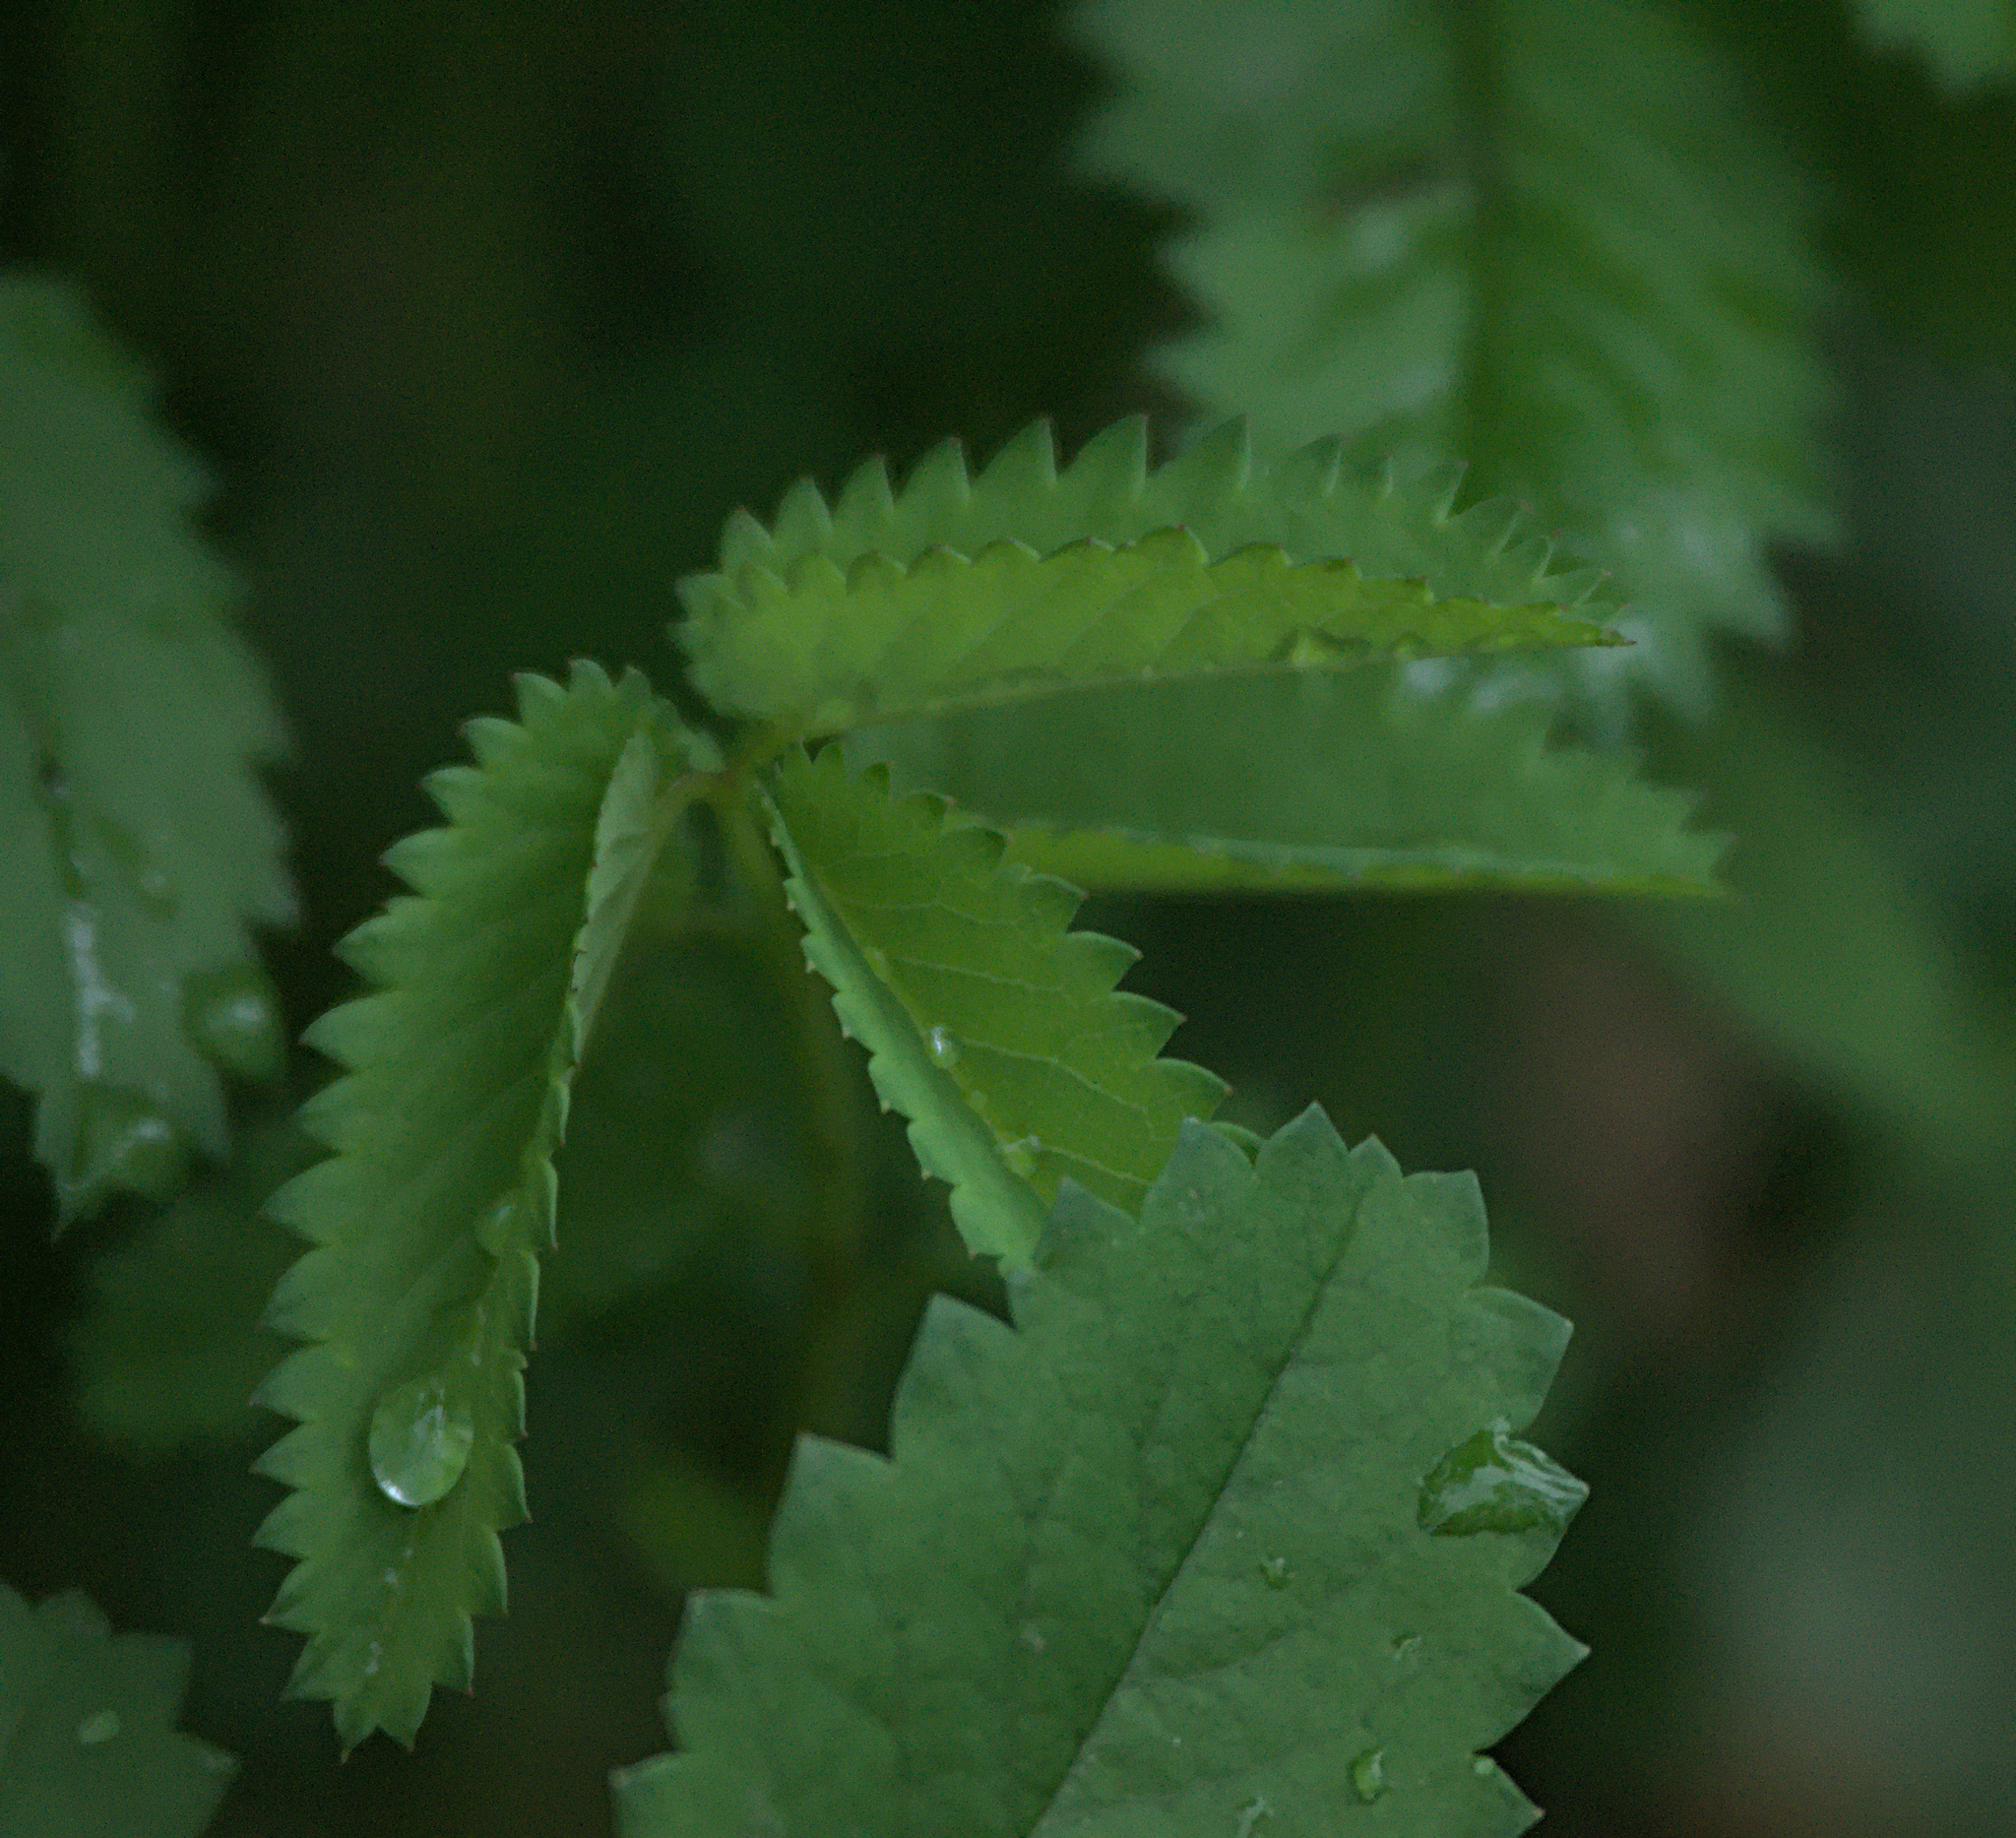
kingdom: Plantae
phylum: Tracheophyta
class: Magnoliopsida
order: Rosales
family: Rosaceae
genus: Sanguisorba
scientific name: Sanguisorba officinalis
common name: Great burnet
